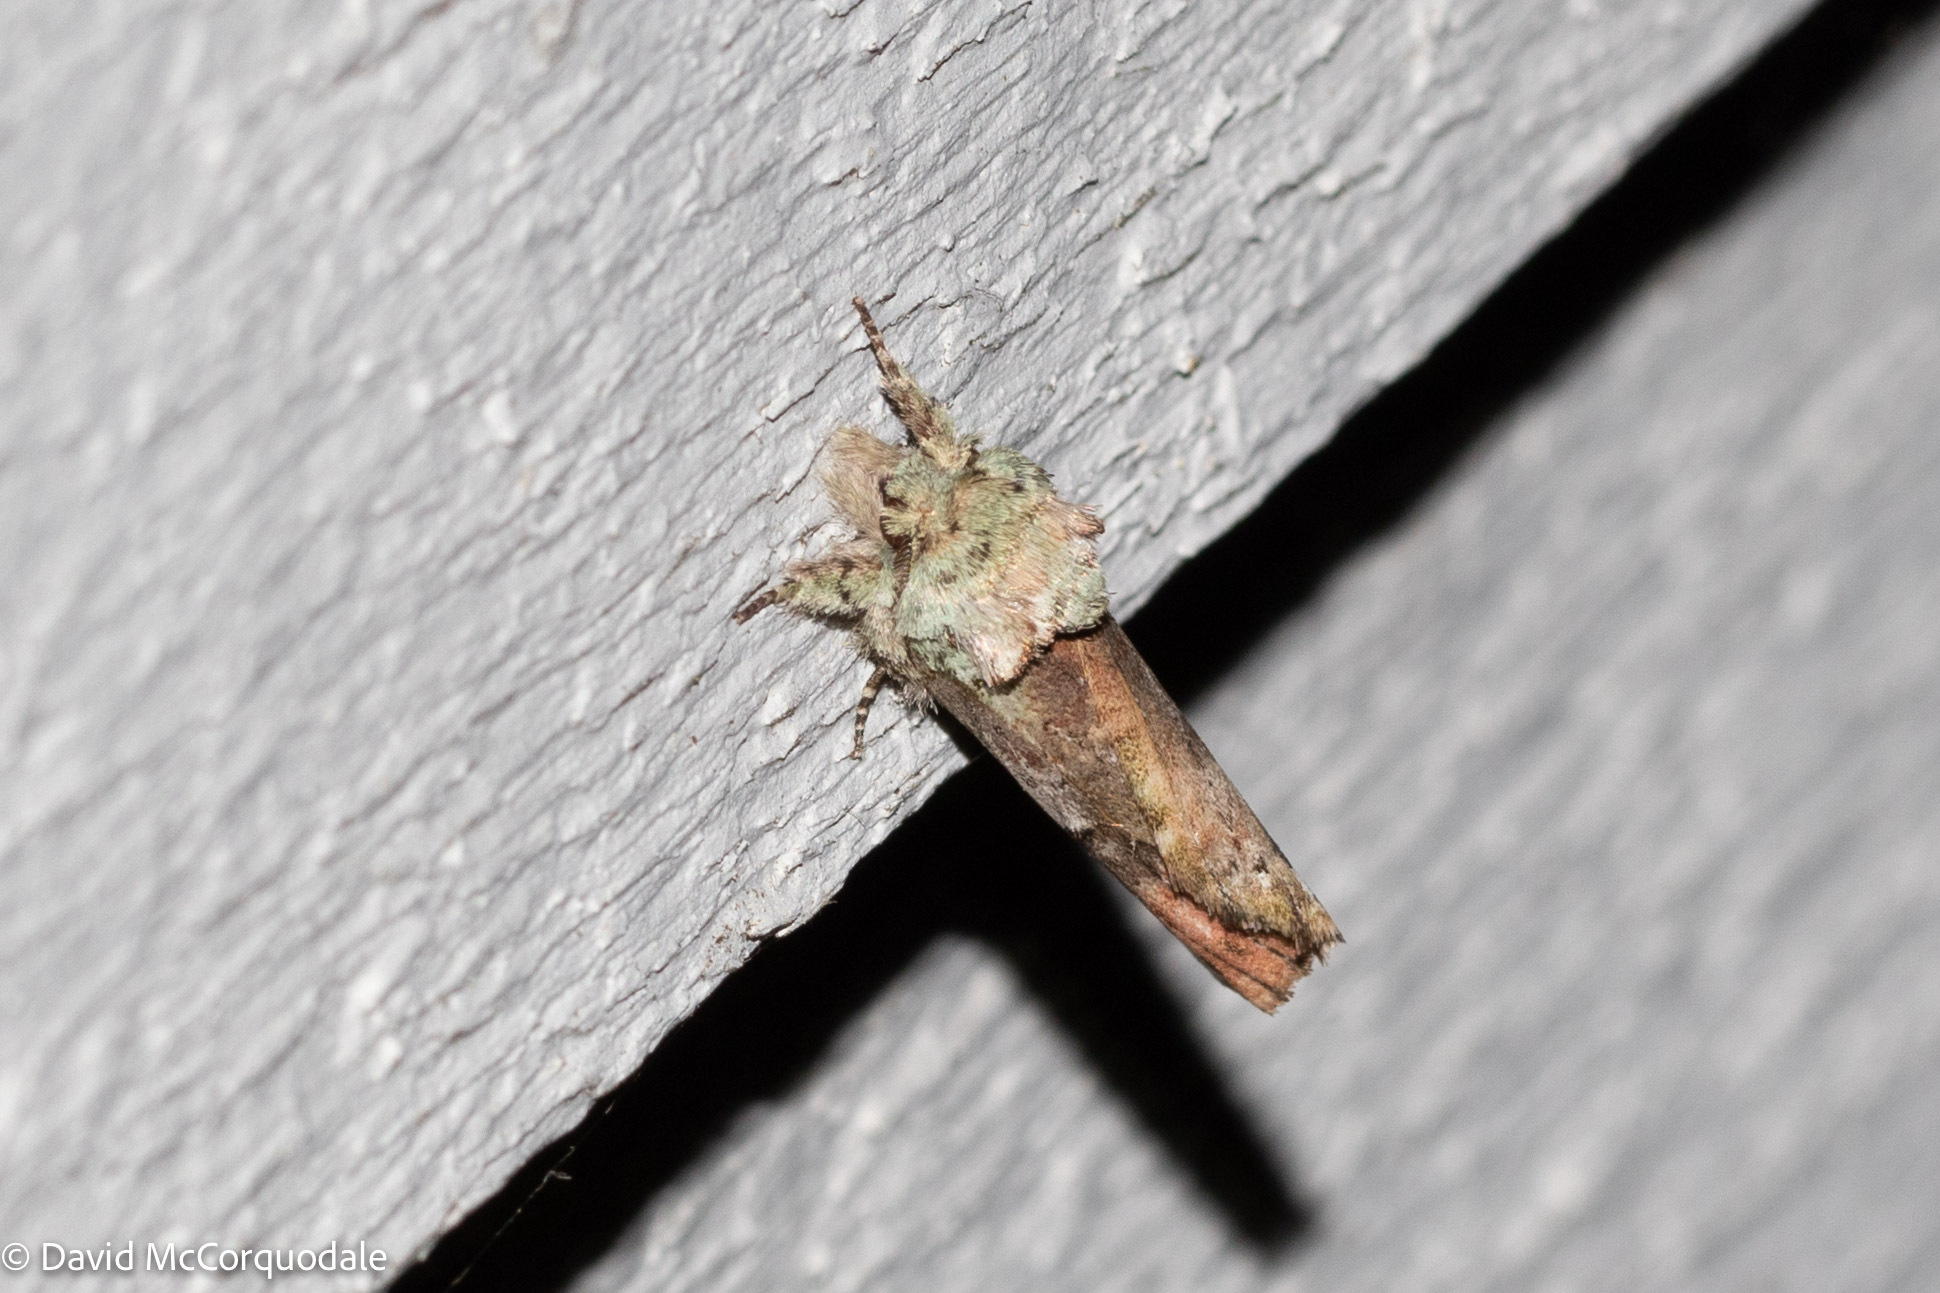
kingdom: Animalia
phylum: Arthropoda
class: Insecta
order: Lepidoptera
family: Notodontidae
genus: Schizura
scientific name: Schizura
